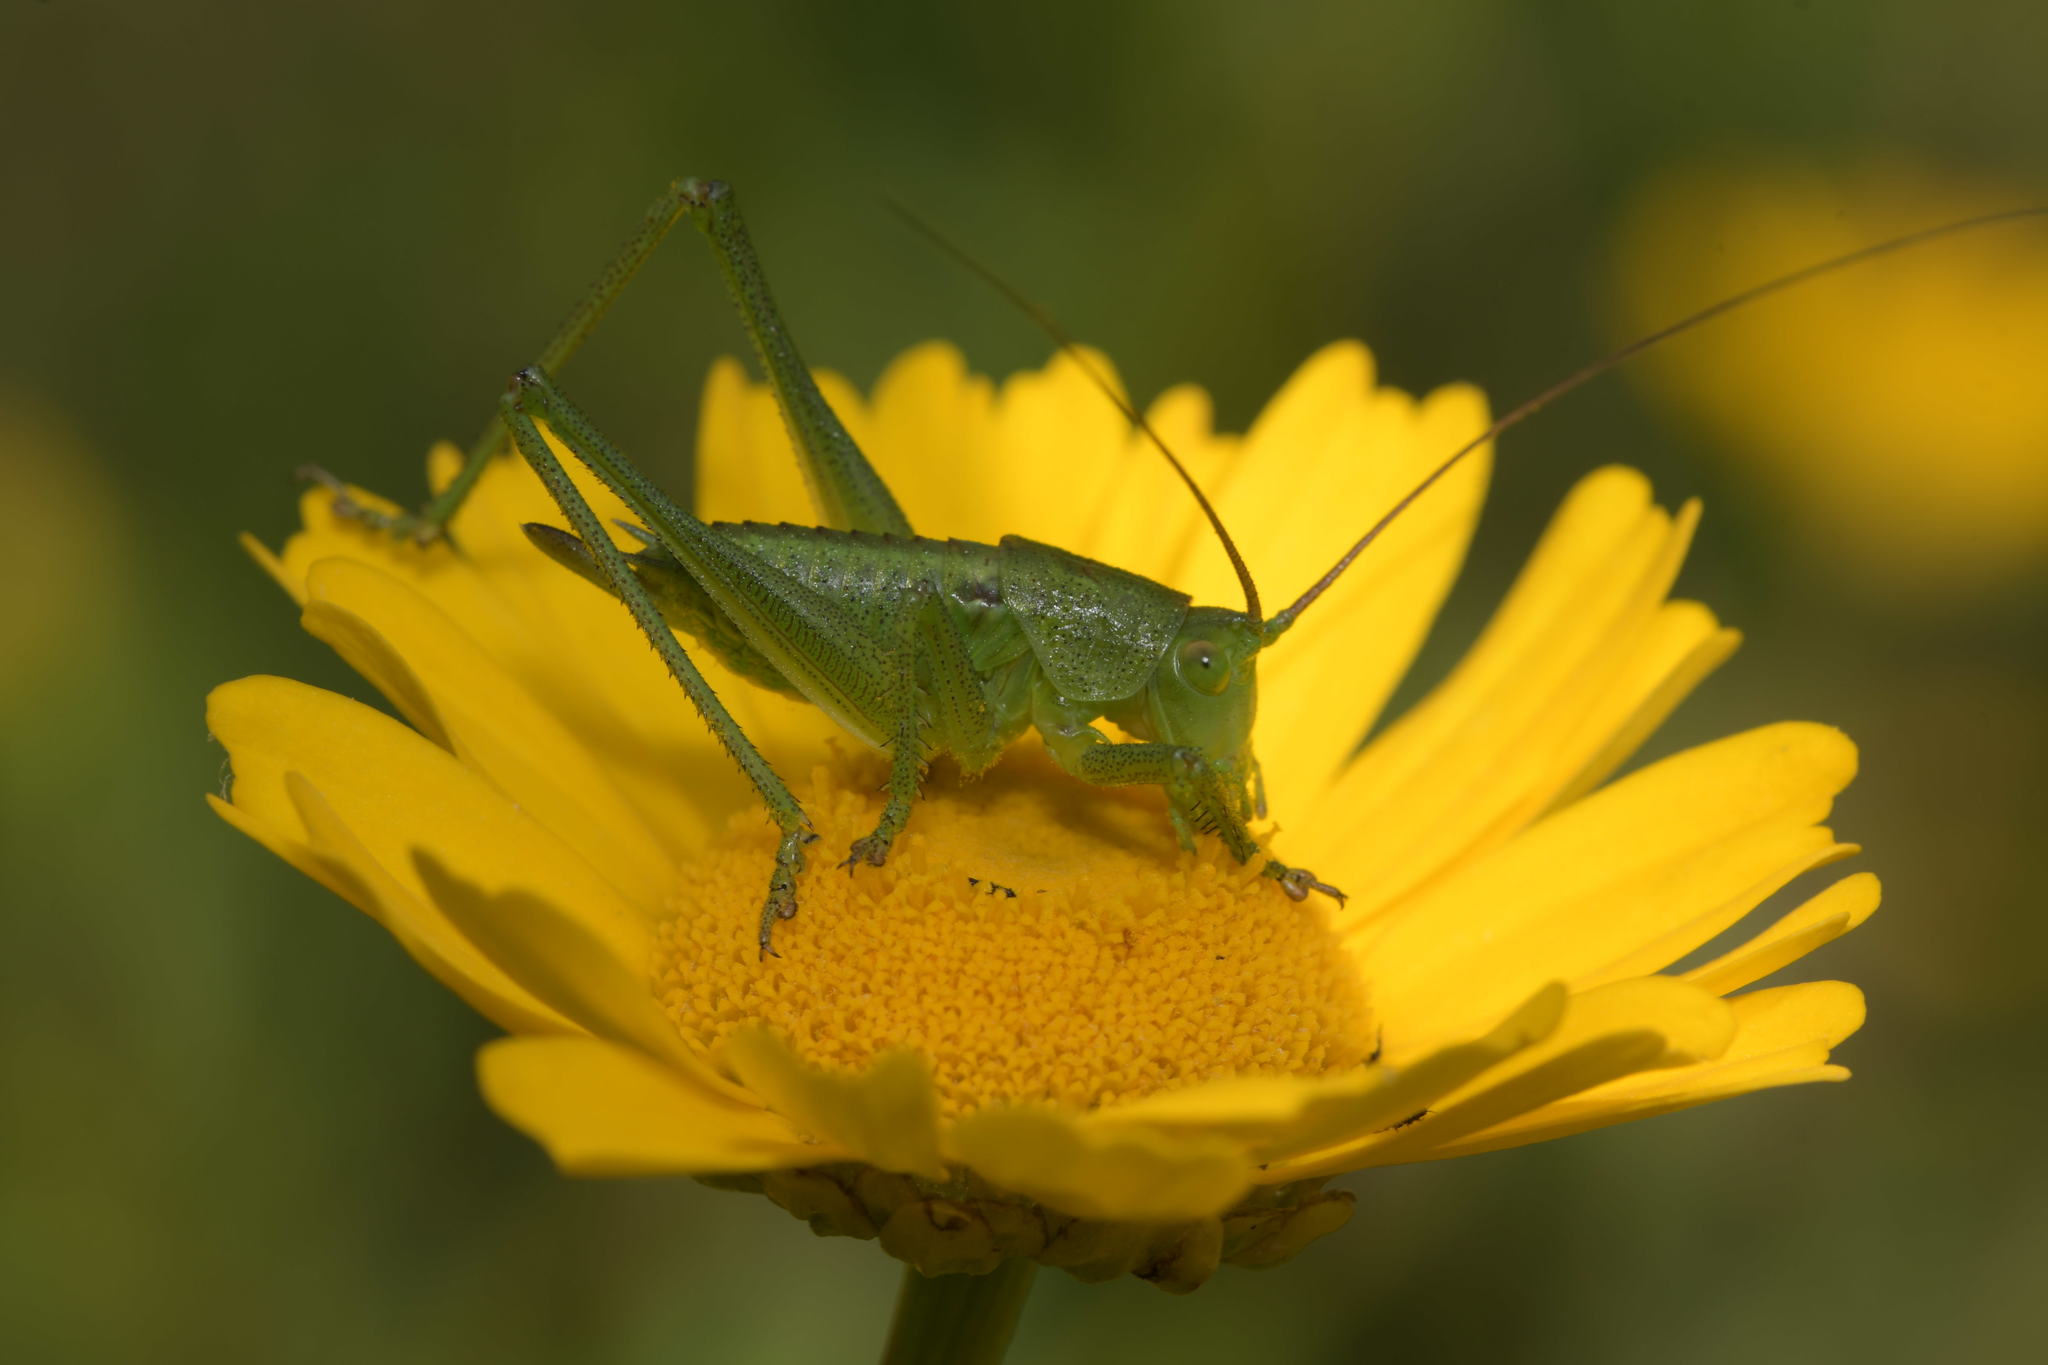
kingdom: Animalia
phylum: Arthropoda
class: Insecta
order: Orthoptera
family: Tettigoniidae
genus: Tettigonia
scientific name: Tettigonia viridissima
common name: Great green bush-cricket
